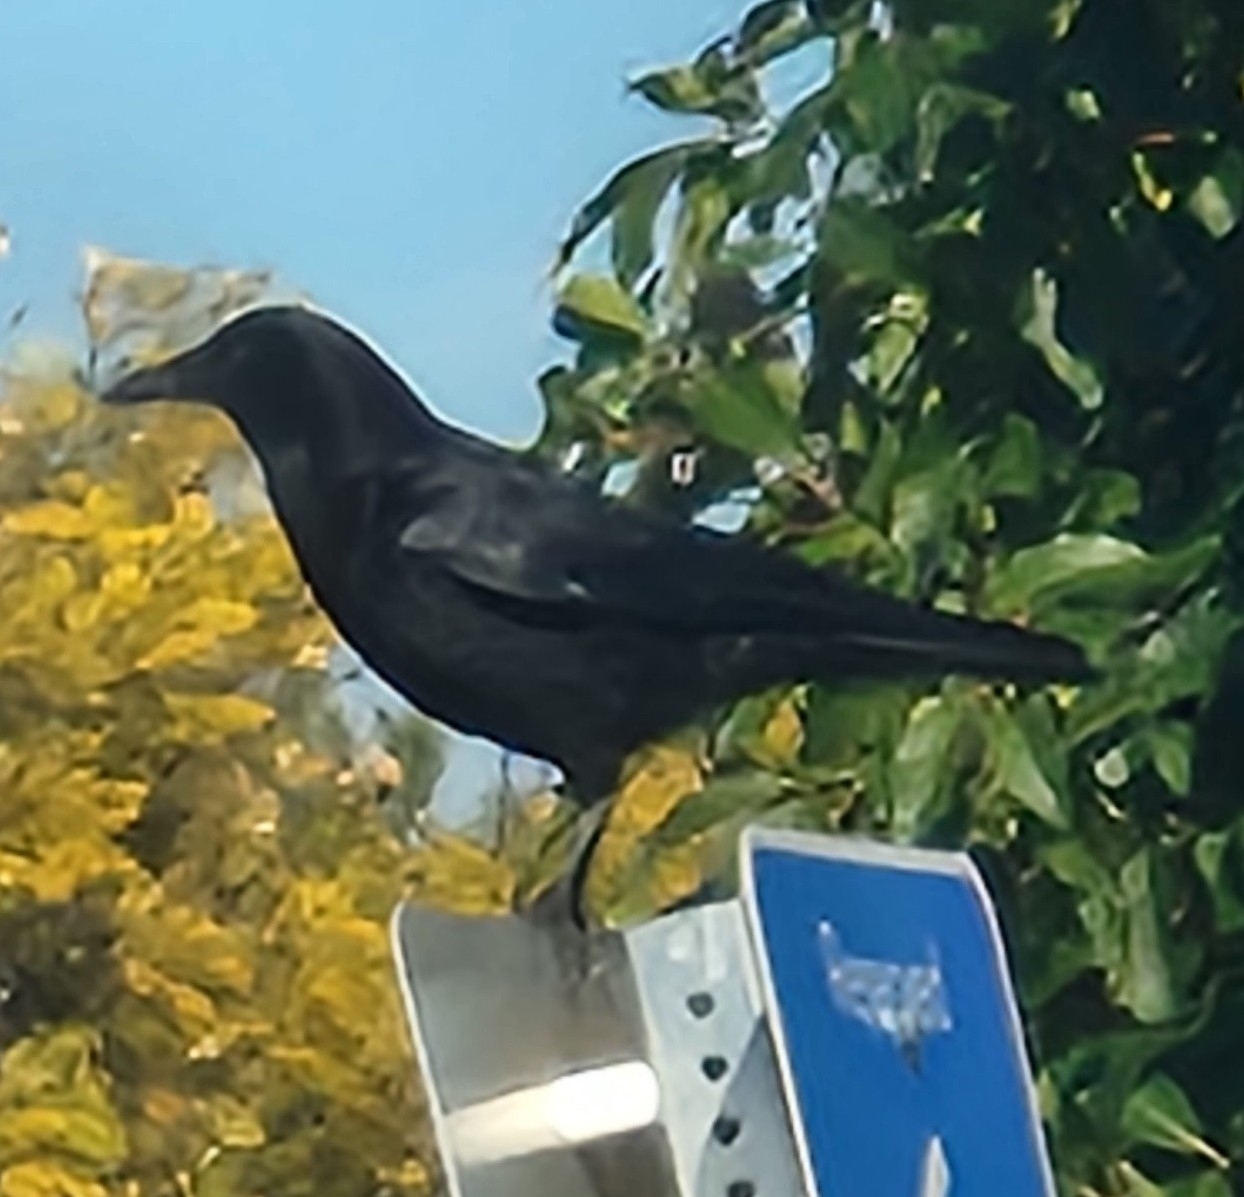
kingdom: Animalia
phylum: Chordata
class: Aves
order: Passeriformes
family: Corvidae
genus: Corvus
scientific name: Corvus brachyrhynchos
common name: American crow
